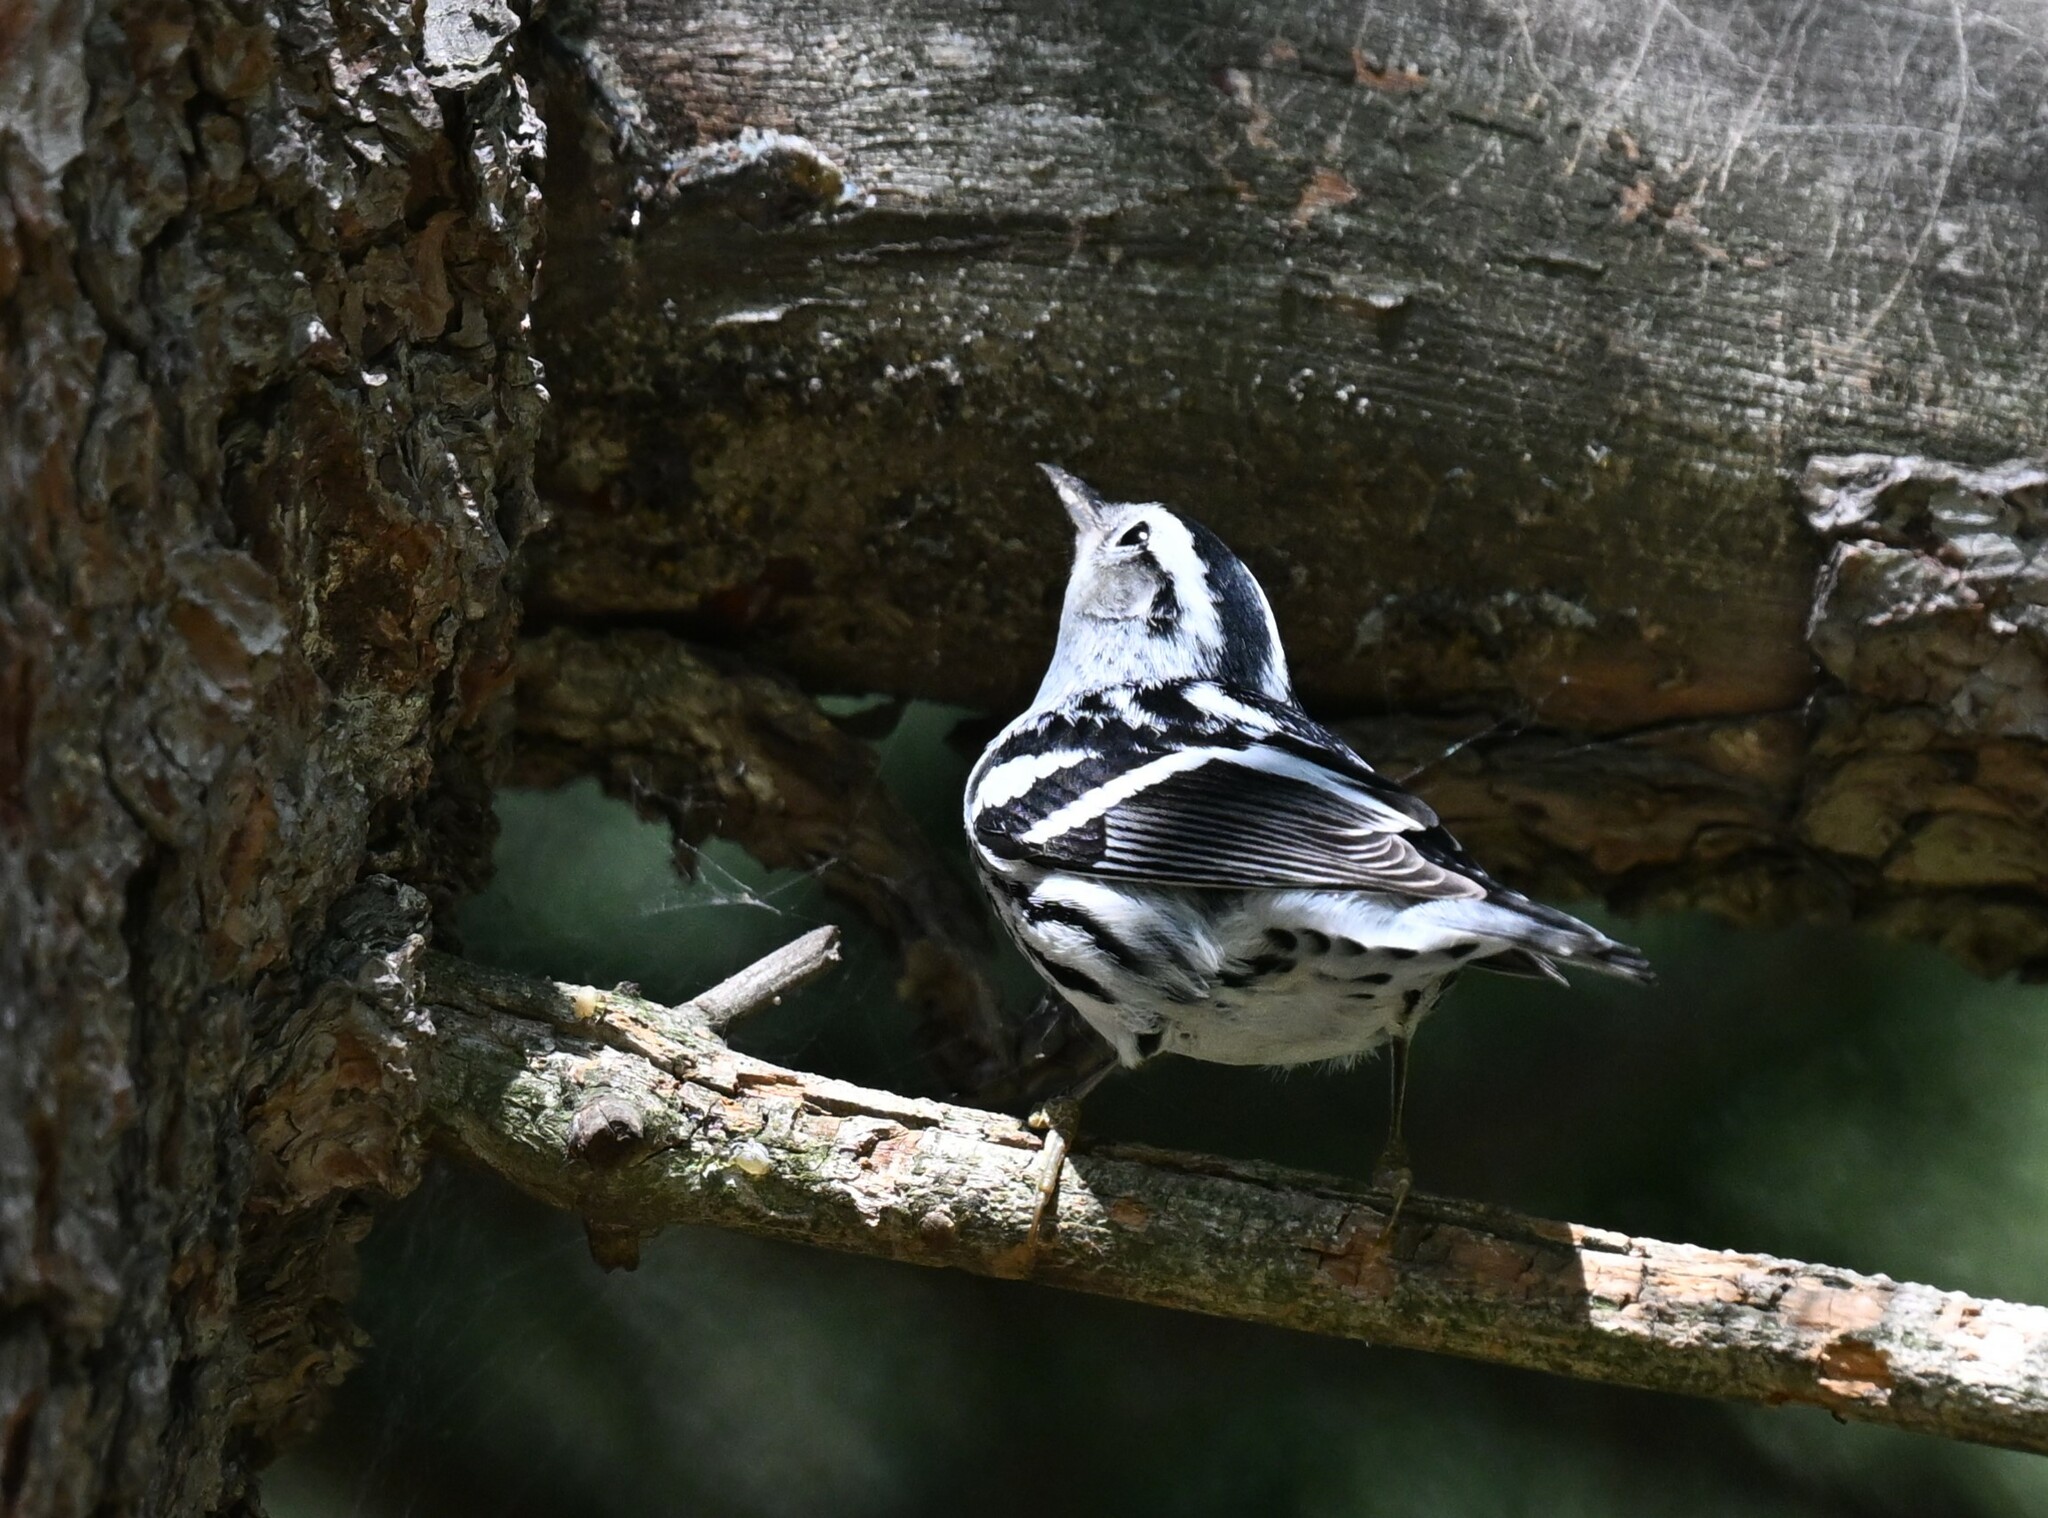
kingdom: Animalia
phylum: Chordata
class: Aves
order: Passeriformes
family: Parulidae
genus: Mniotilta
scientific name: Mniotilta varia
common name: Black-and-white warbler
